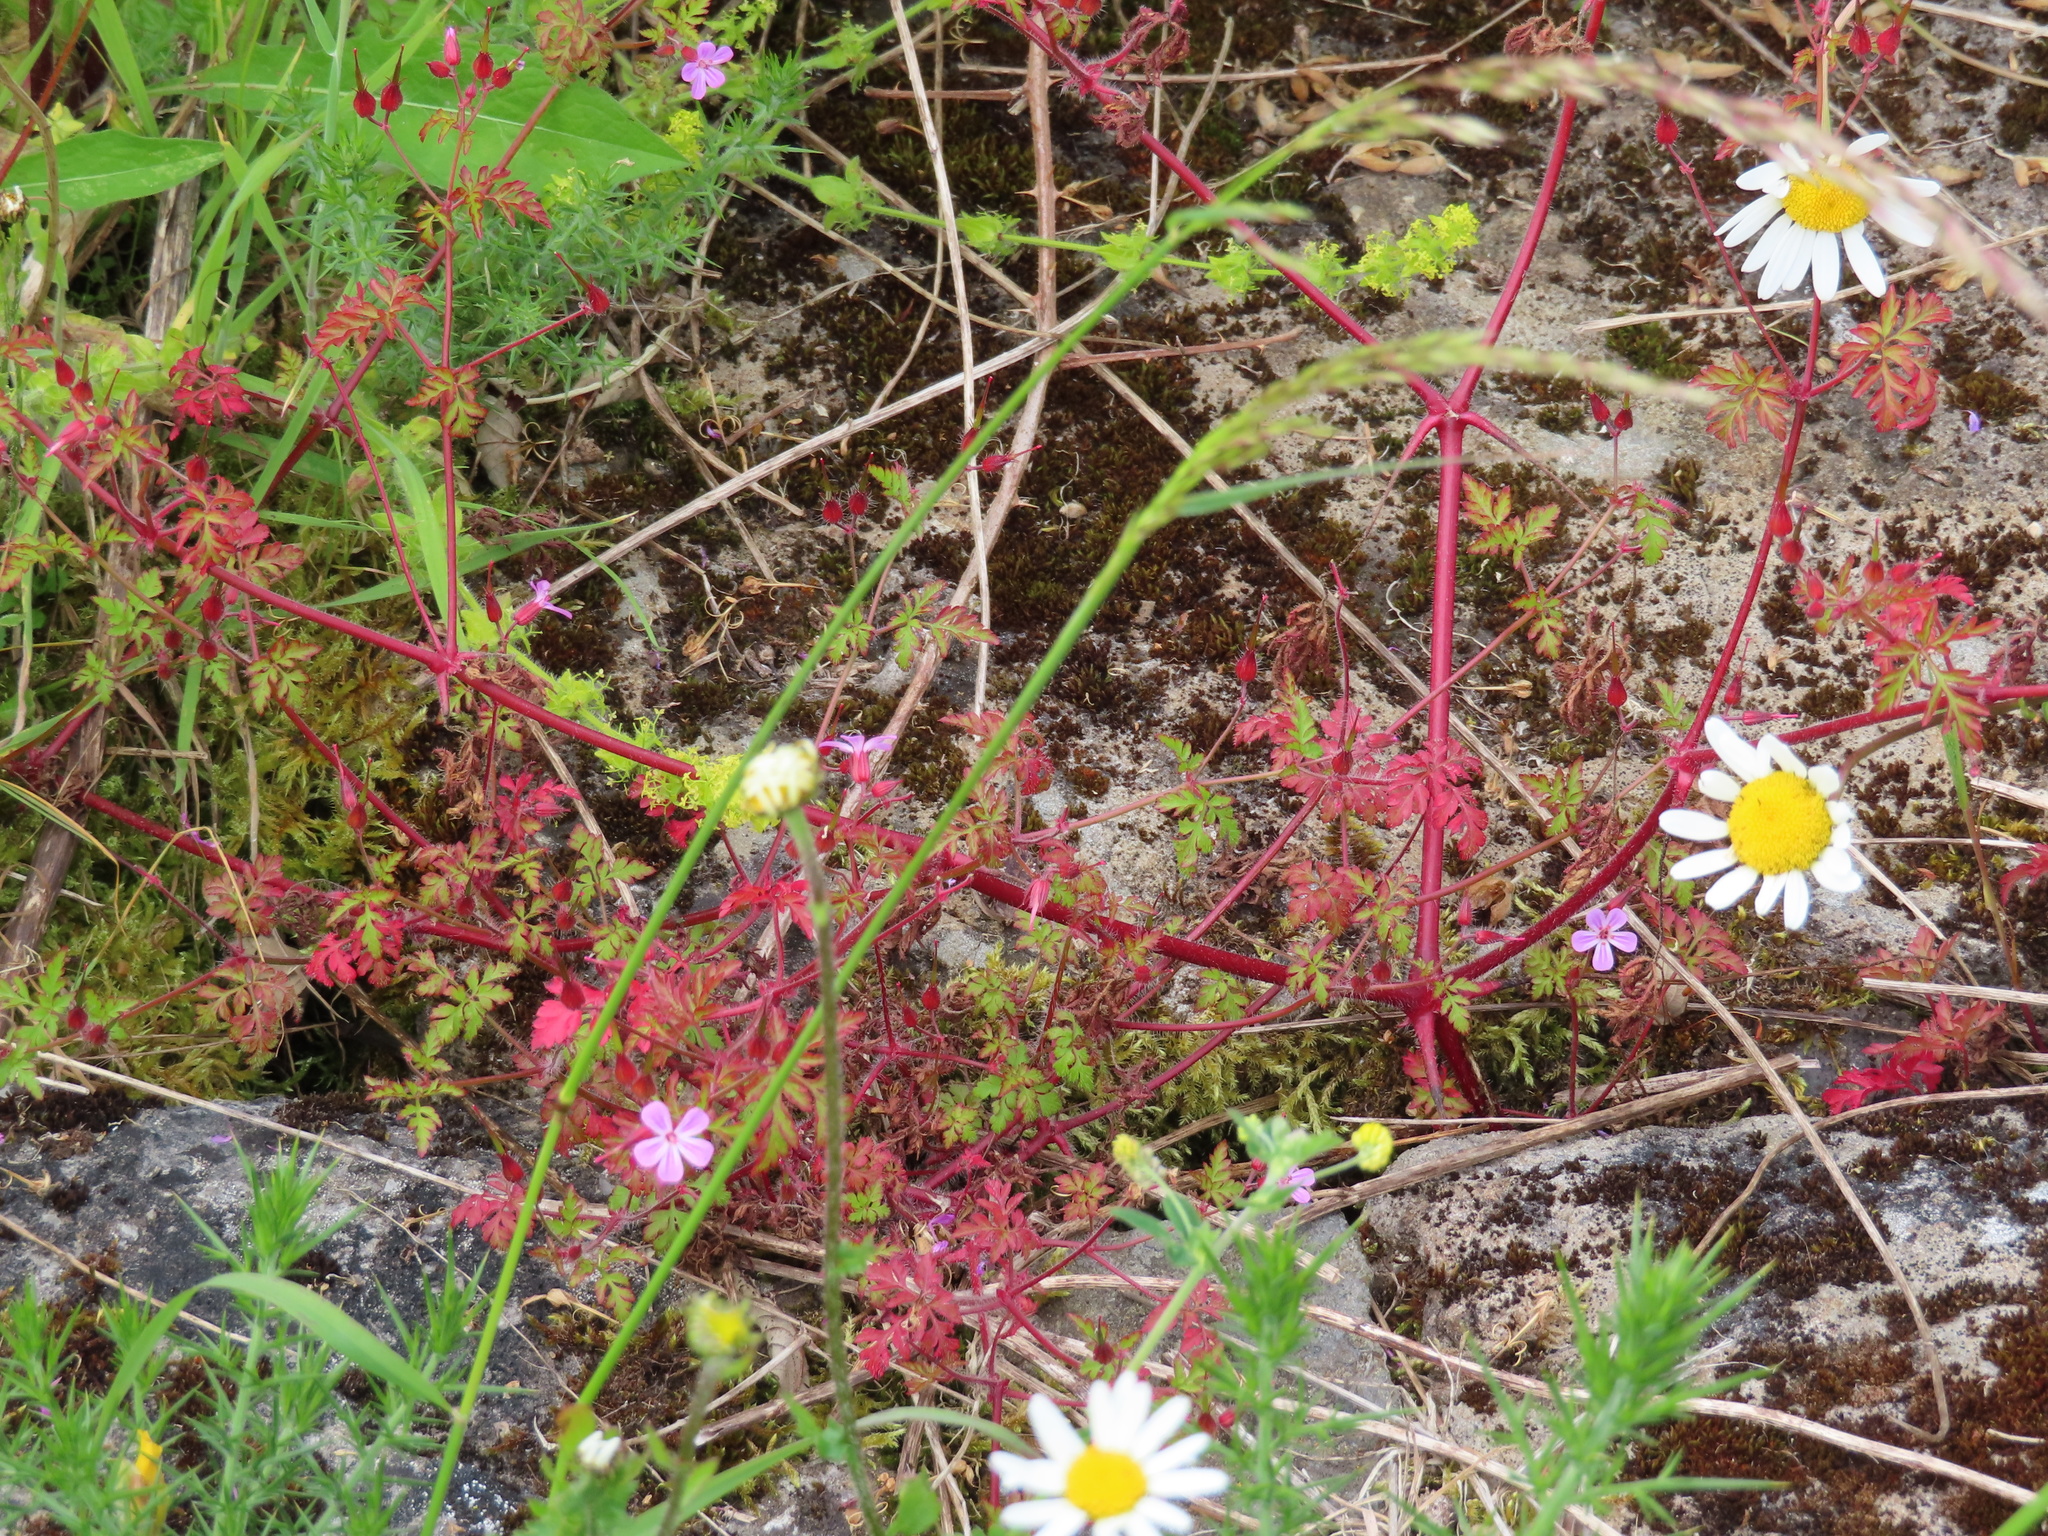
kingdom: Plantae
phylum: Tracheophyta
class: Magnoliopsida
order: Geraniales
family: Geraniaceae
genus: Geranium
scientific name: Geranium robertianum
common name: Herb-robert
